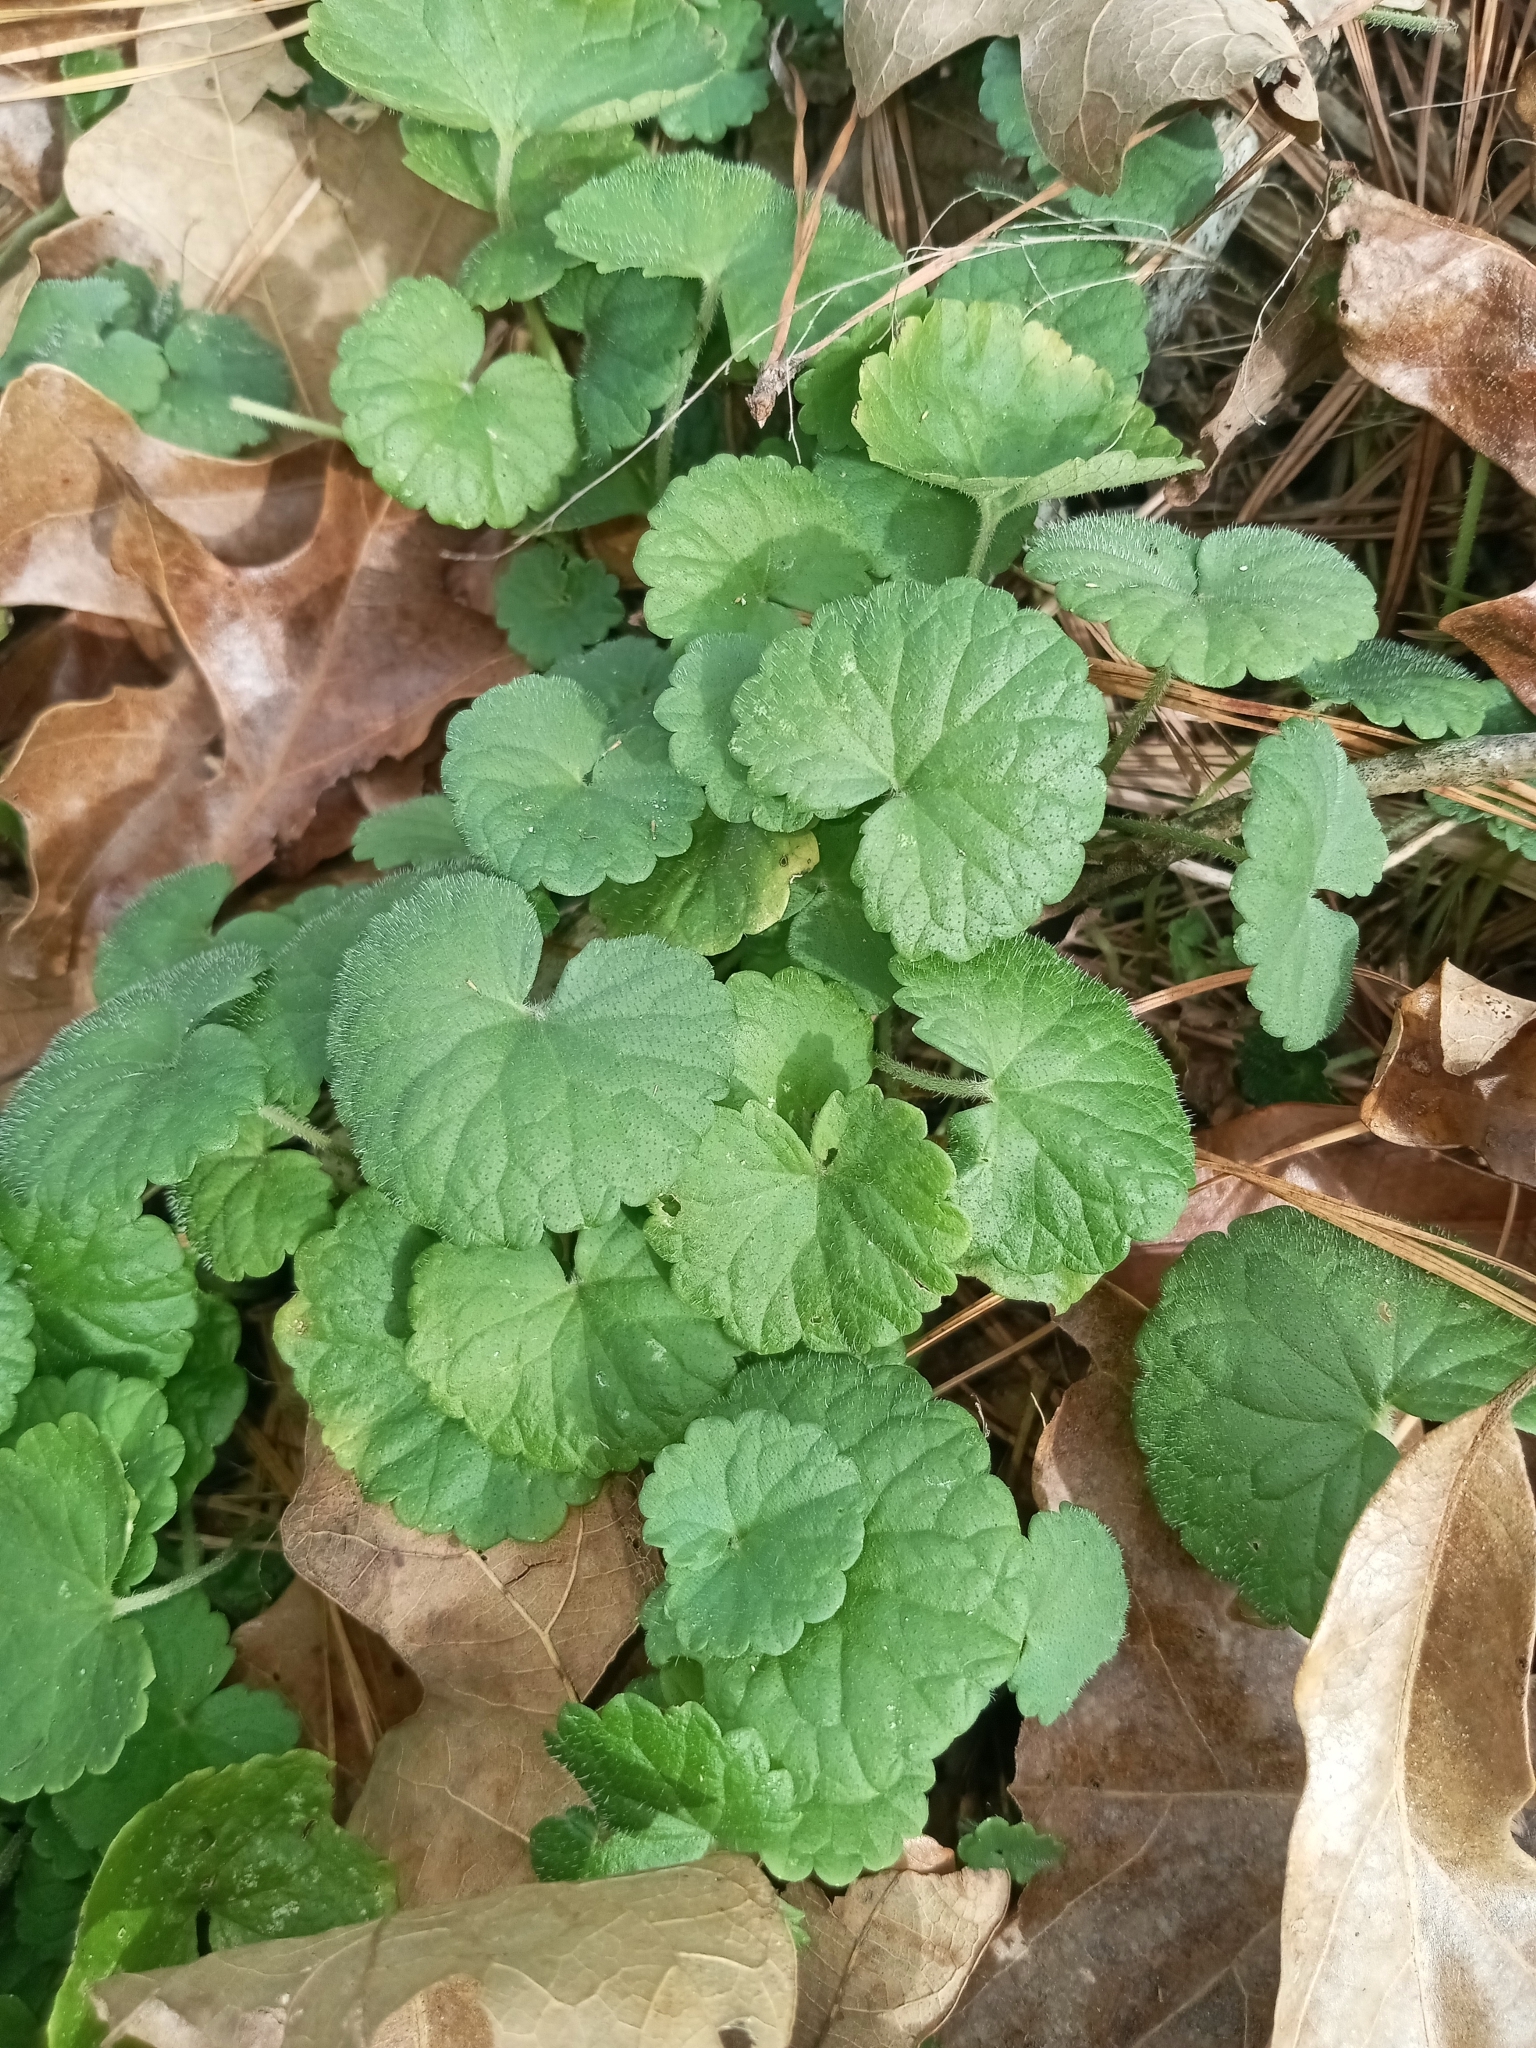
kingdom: Plantae
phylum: Tracheophyta
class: Magnoliopsida
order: Lamiales
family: Lamiaceae
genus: Glechoma
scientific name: Glechoma hederacea
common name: Ground ivy
